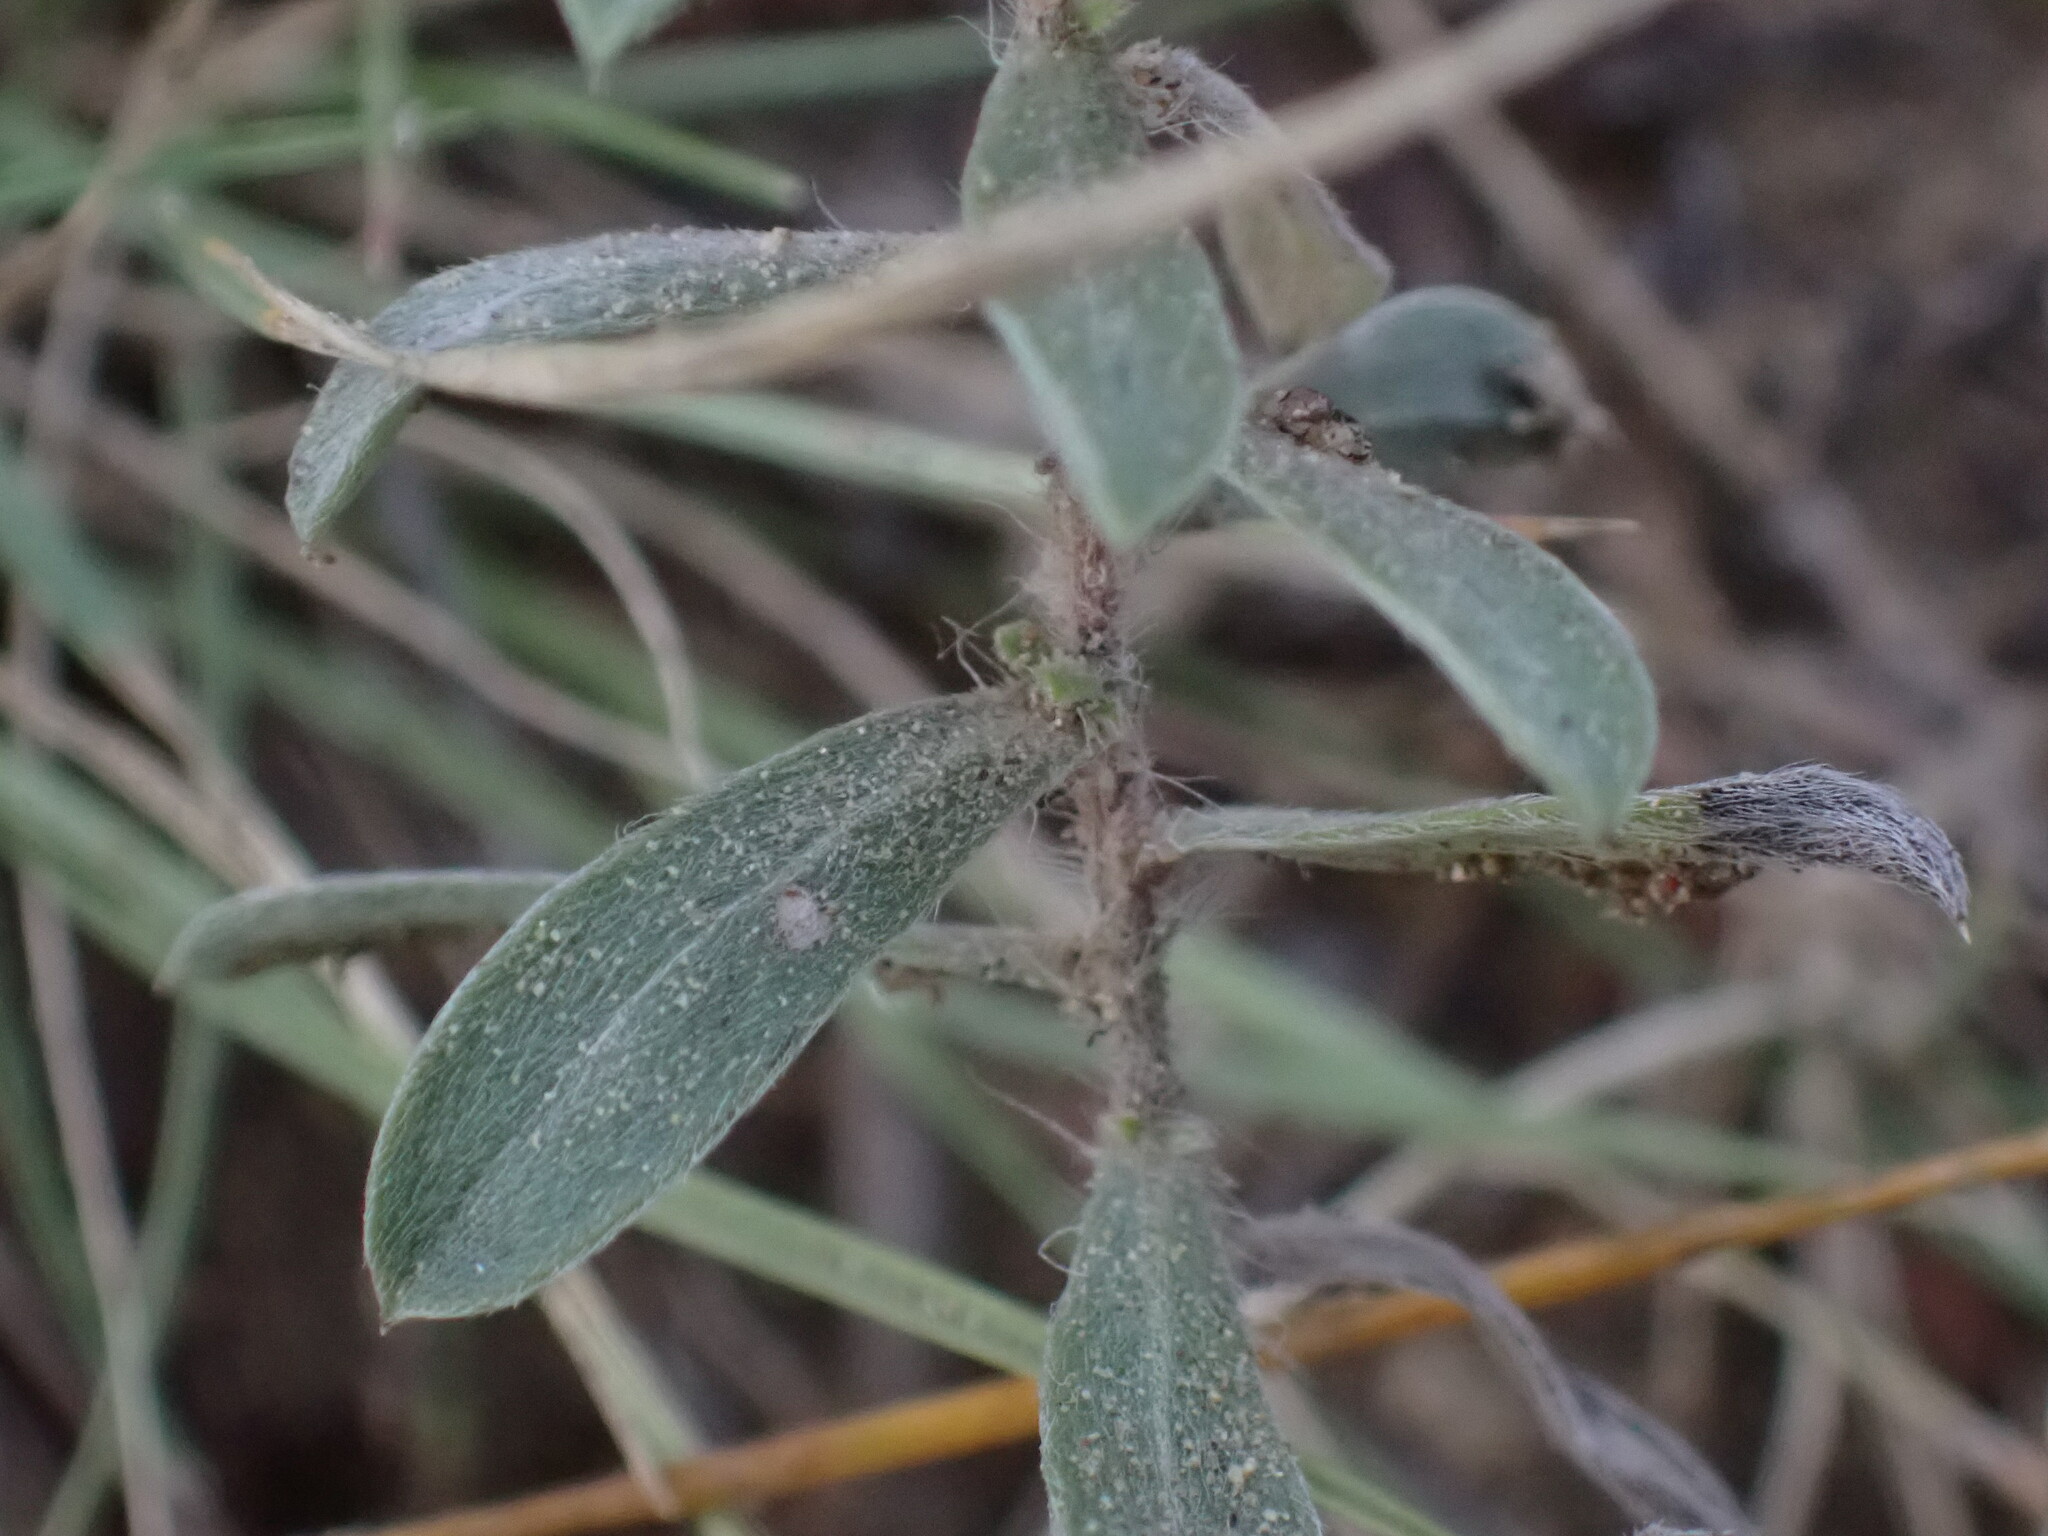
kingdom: Plantae
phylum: Tracheophyta
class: Magnoliopsida
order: Asterales
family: Asteraceae
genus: Heterotheca
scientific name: Heterotheca villosa
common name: Hairy false goldenaster
